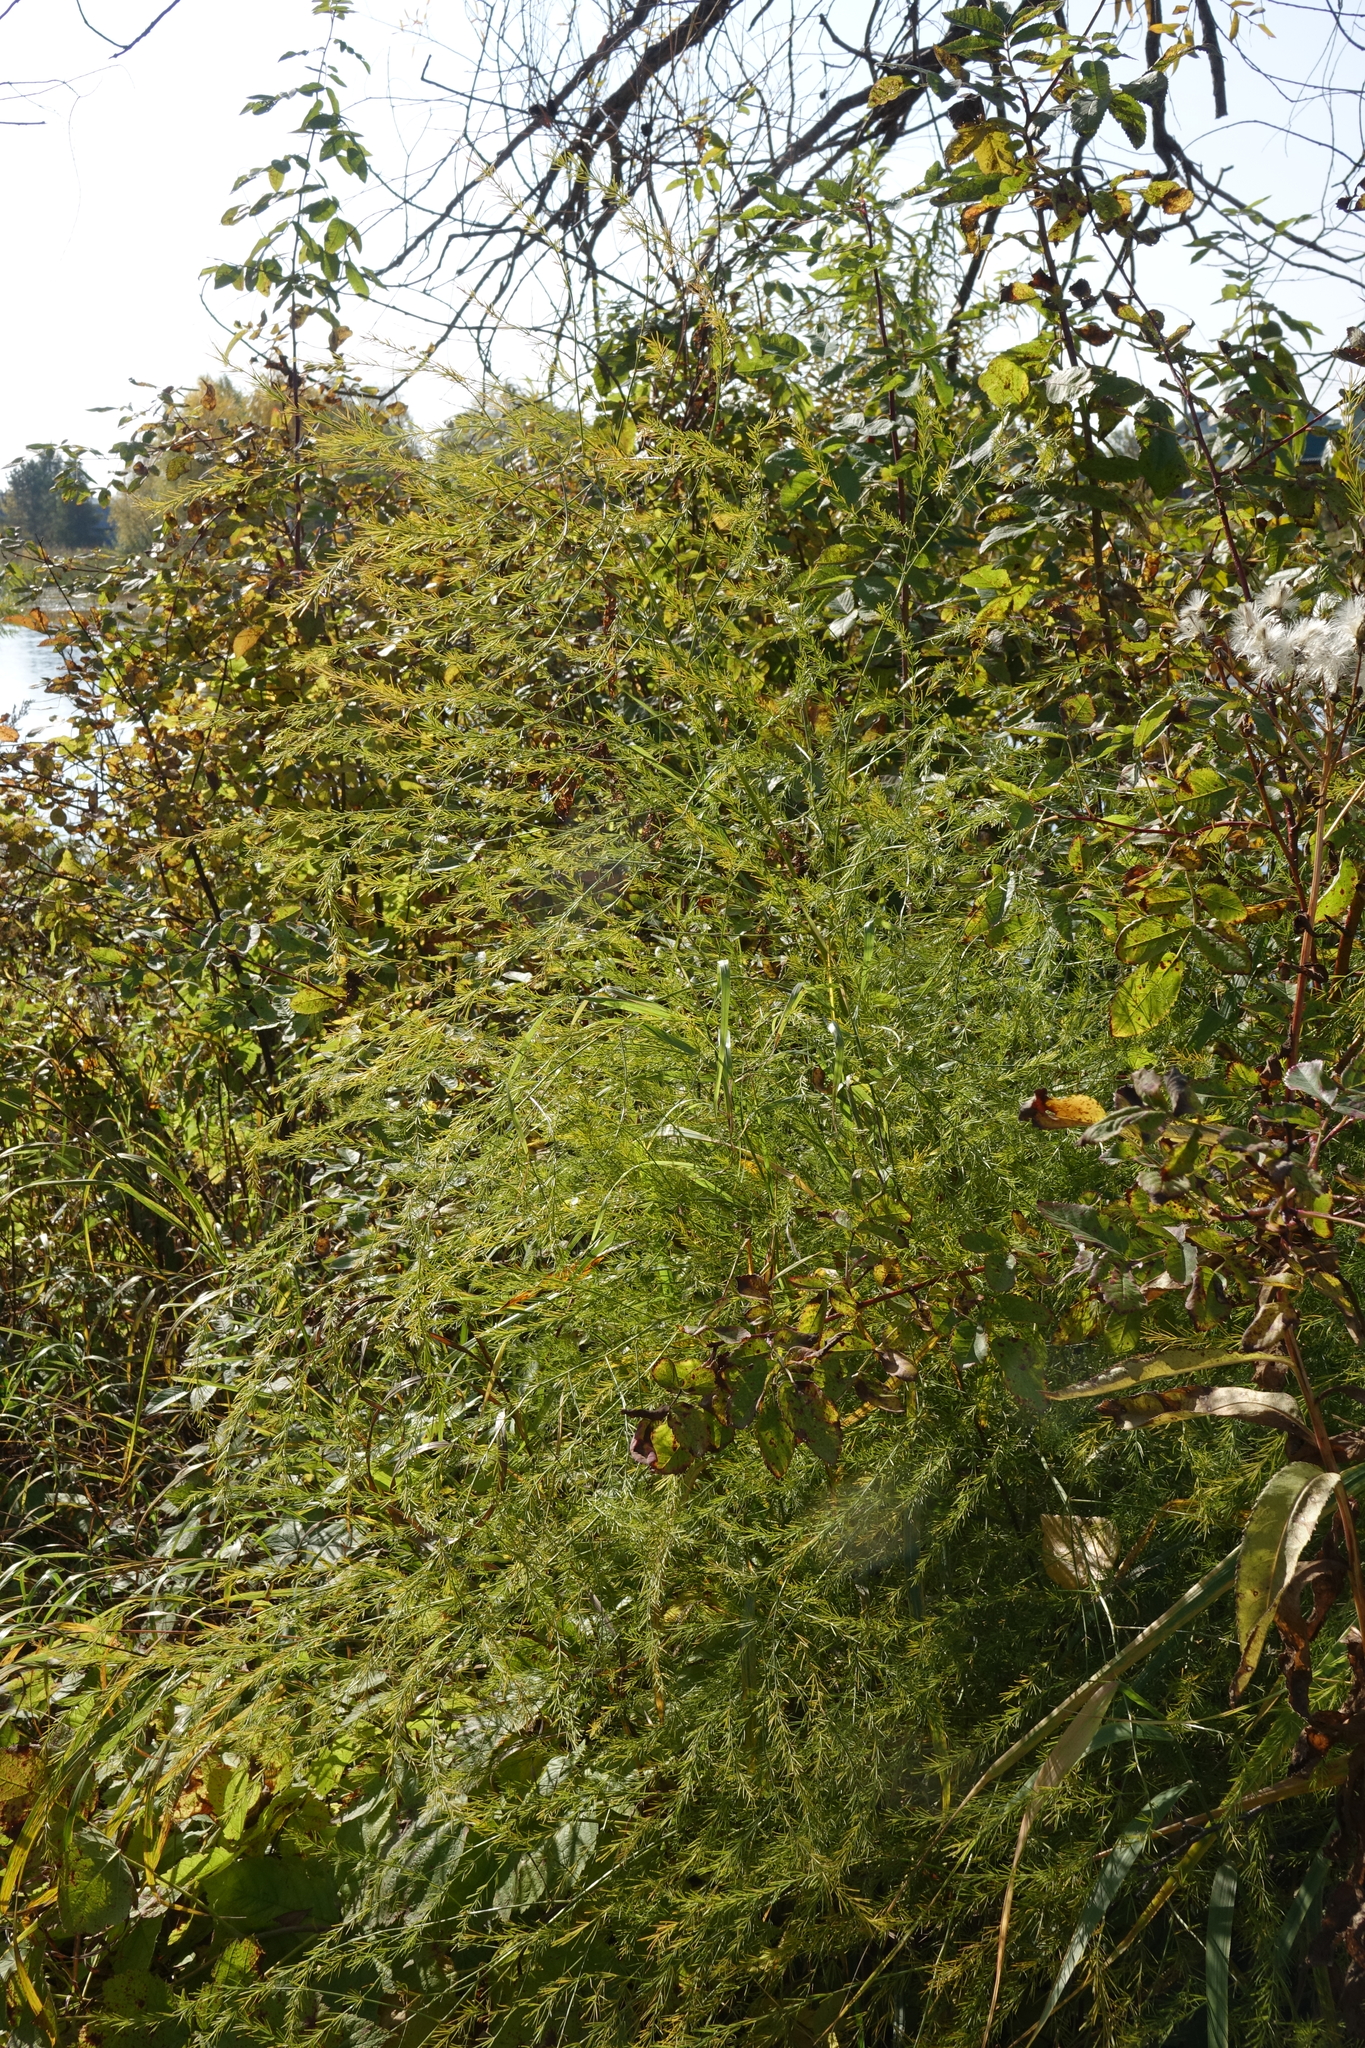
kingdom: Plantae
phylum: Tracheophyta
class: Liliopsida
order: Asparagales
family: Asparagaceae
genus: Asparagus
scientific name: Asparagus officinalis
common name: Garden asparagus
